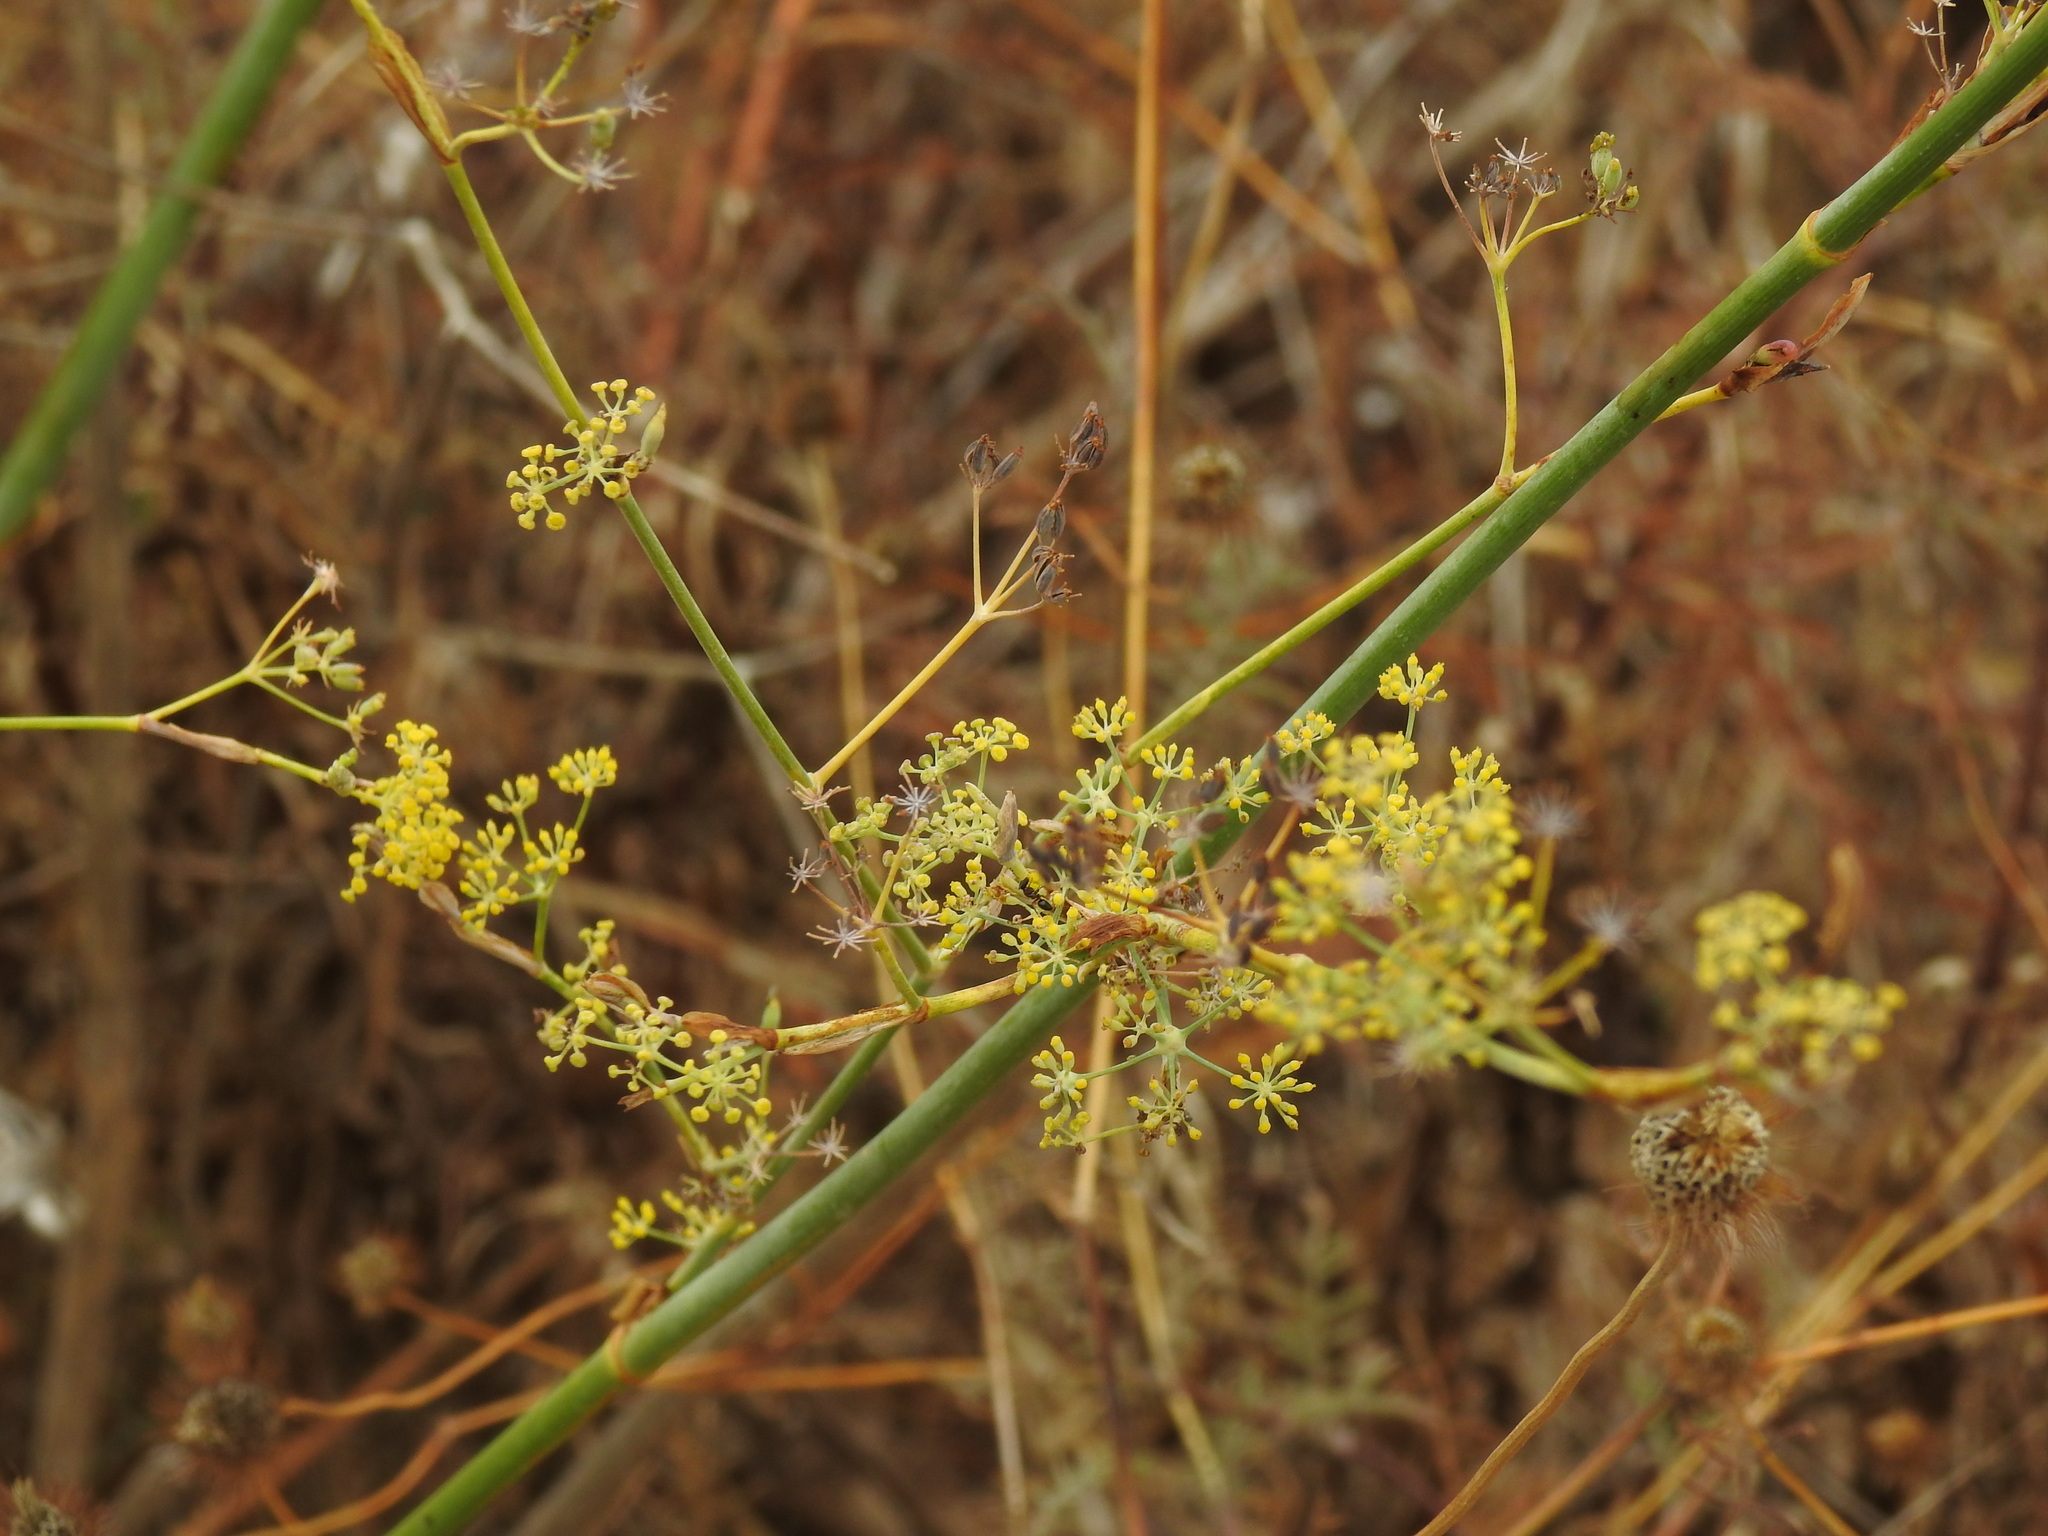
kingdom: Plantae
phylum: Tracheophyta
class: Magnoliopsida
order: Apiales
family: Apiaceae
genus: Foeniculum
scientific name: Foeniculum vulgare
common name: Fennel
